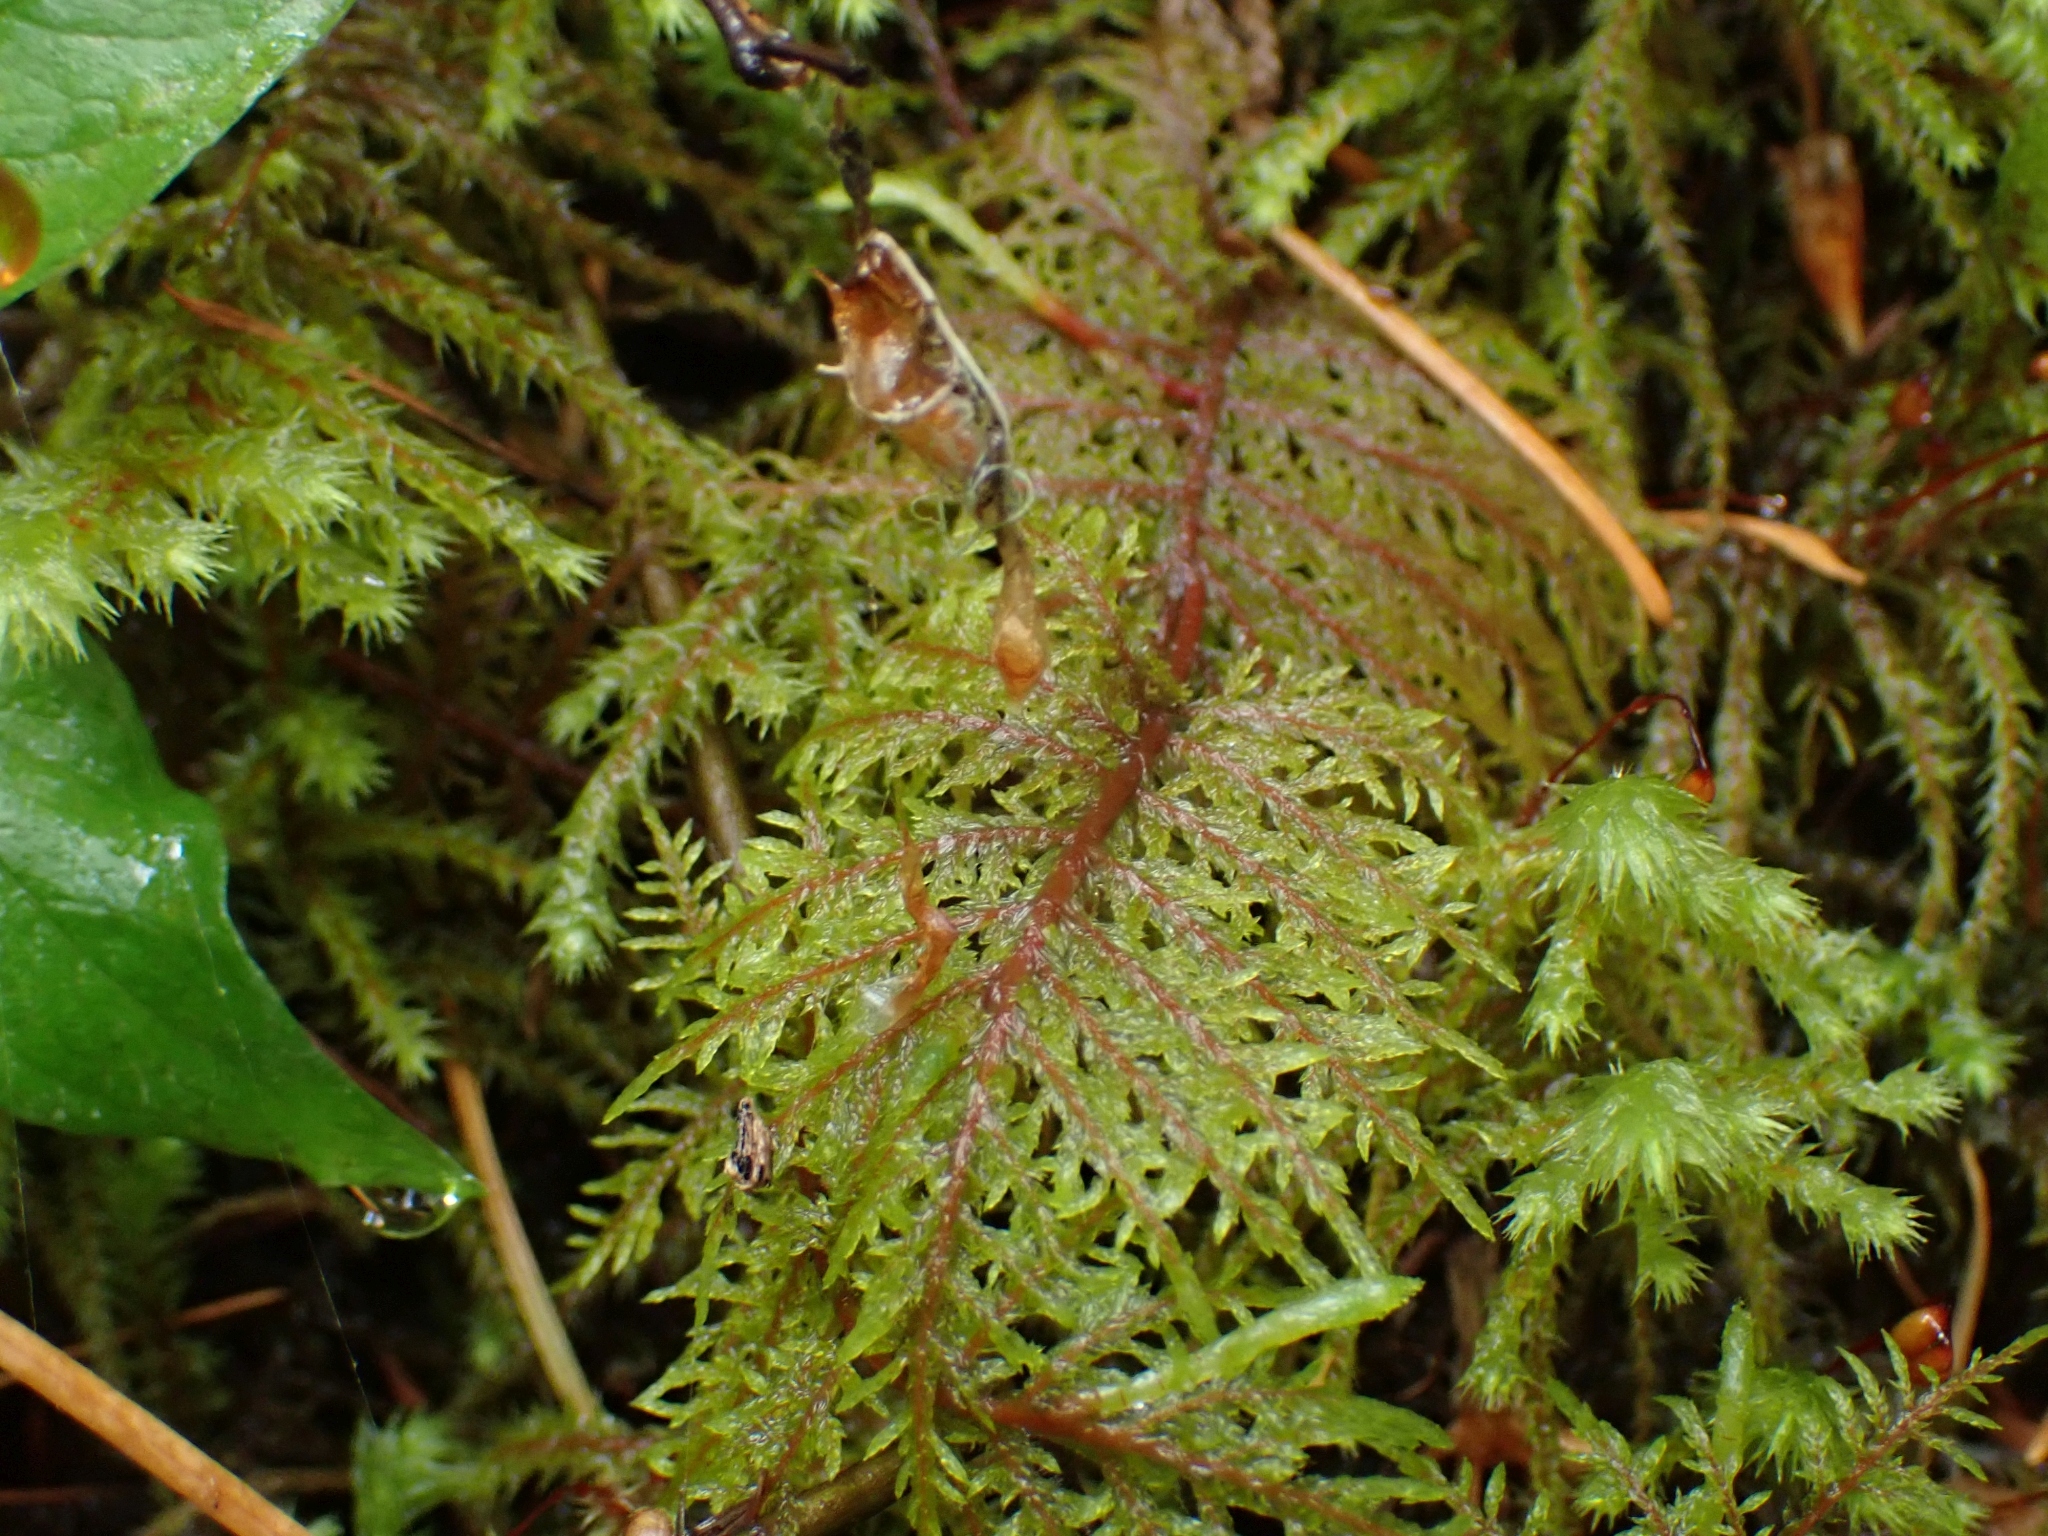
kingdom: Plantae
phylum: Bryophyta
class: Bryopsida
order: Hypnales
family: Hylocomiaceae
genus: Hylocomium
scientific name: Hylocomium splendens
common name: Stairstep moss
